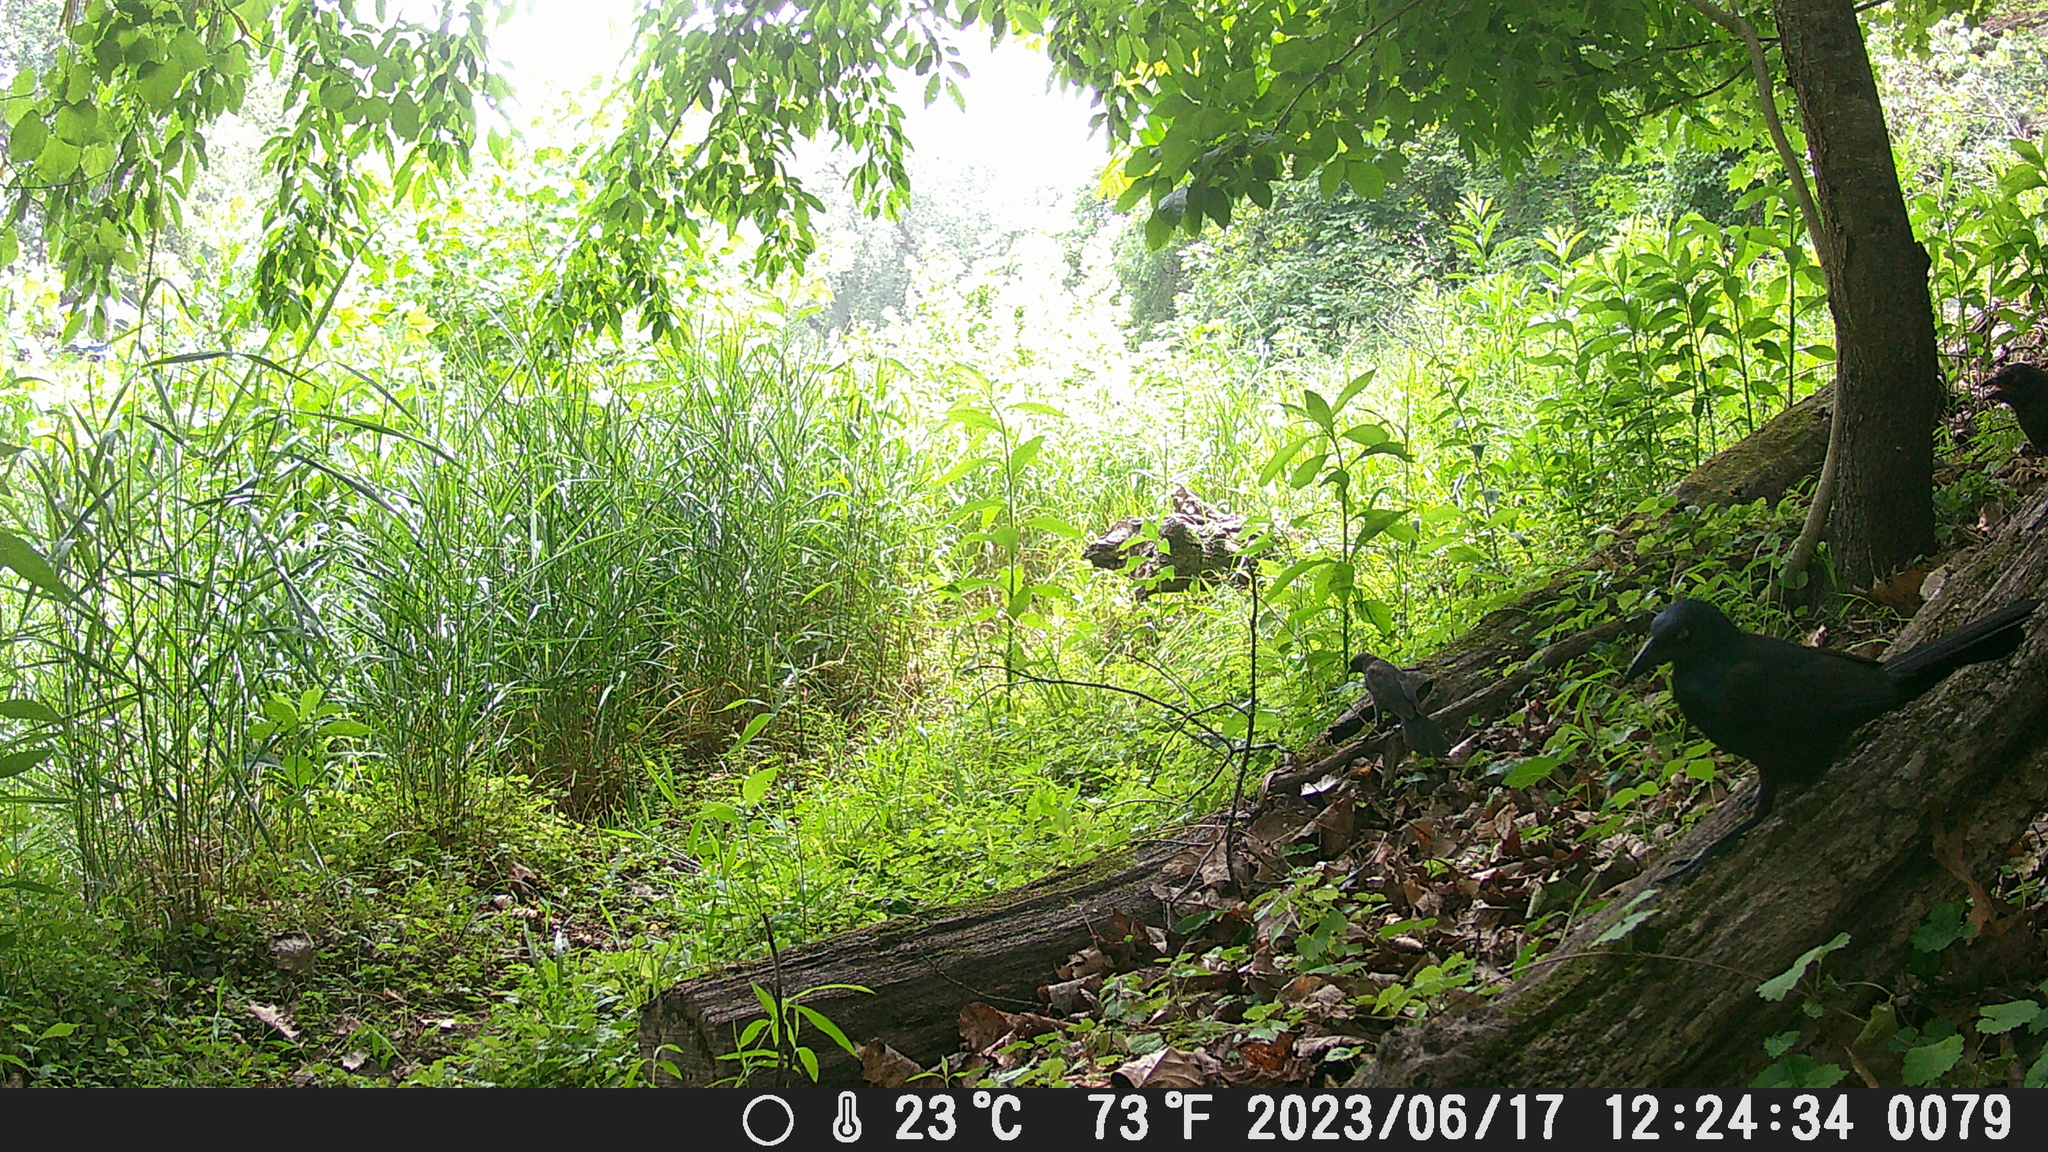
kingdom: Animalia
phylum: Chordata
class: Aves
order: Passeriformes
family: Icteridae
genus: Quiscalus
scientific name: Quiscalus quiscula
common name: Common grackle
